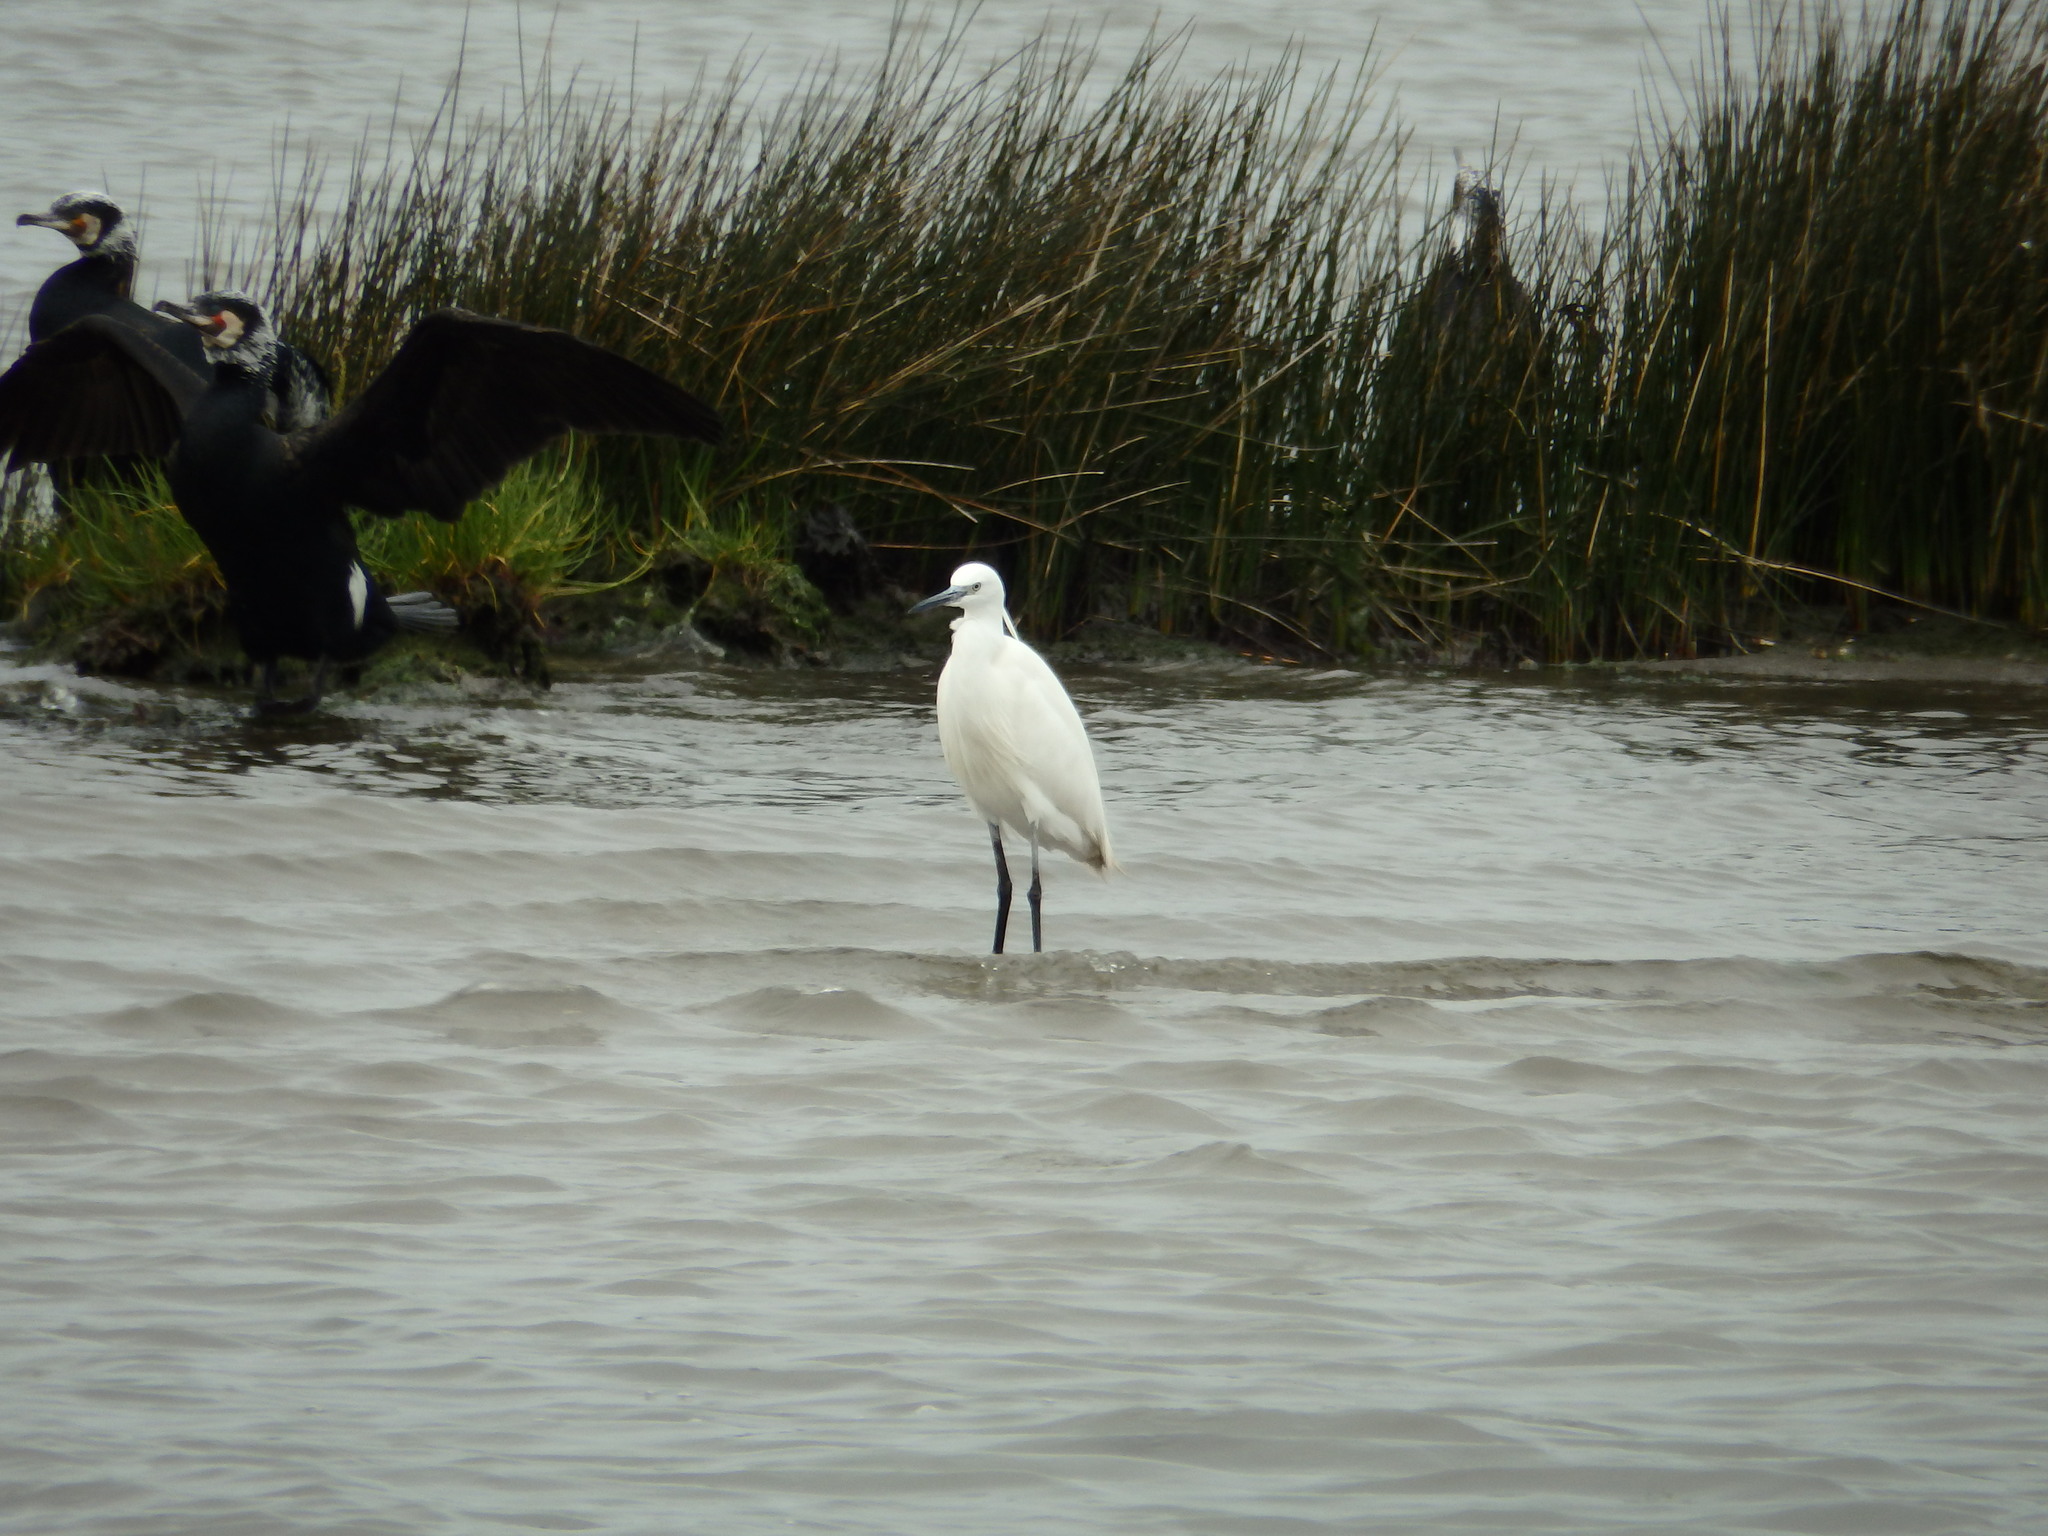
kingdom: Animalia
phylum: Chordata
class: Aves
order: Pelecaniformes
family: Ardeidae
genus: Egretta
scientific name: Egretta garzetta
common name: Little egret
